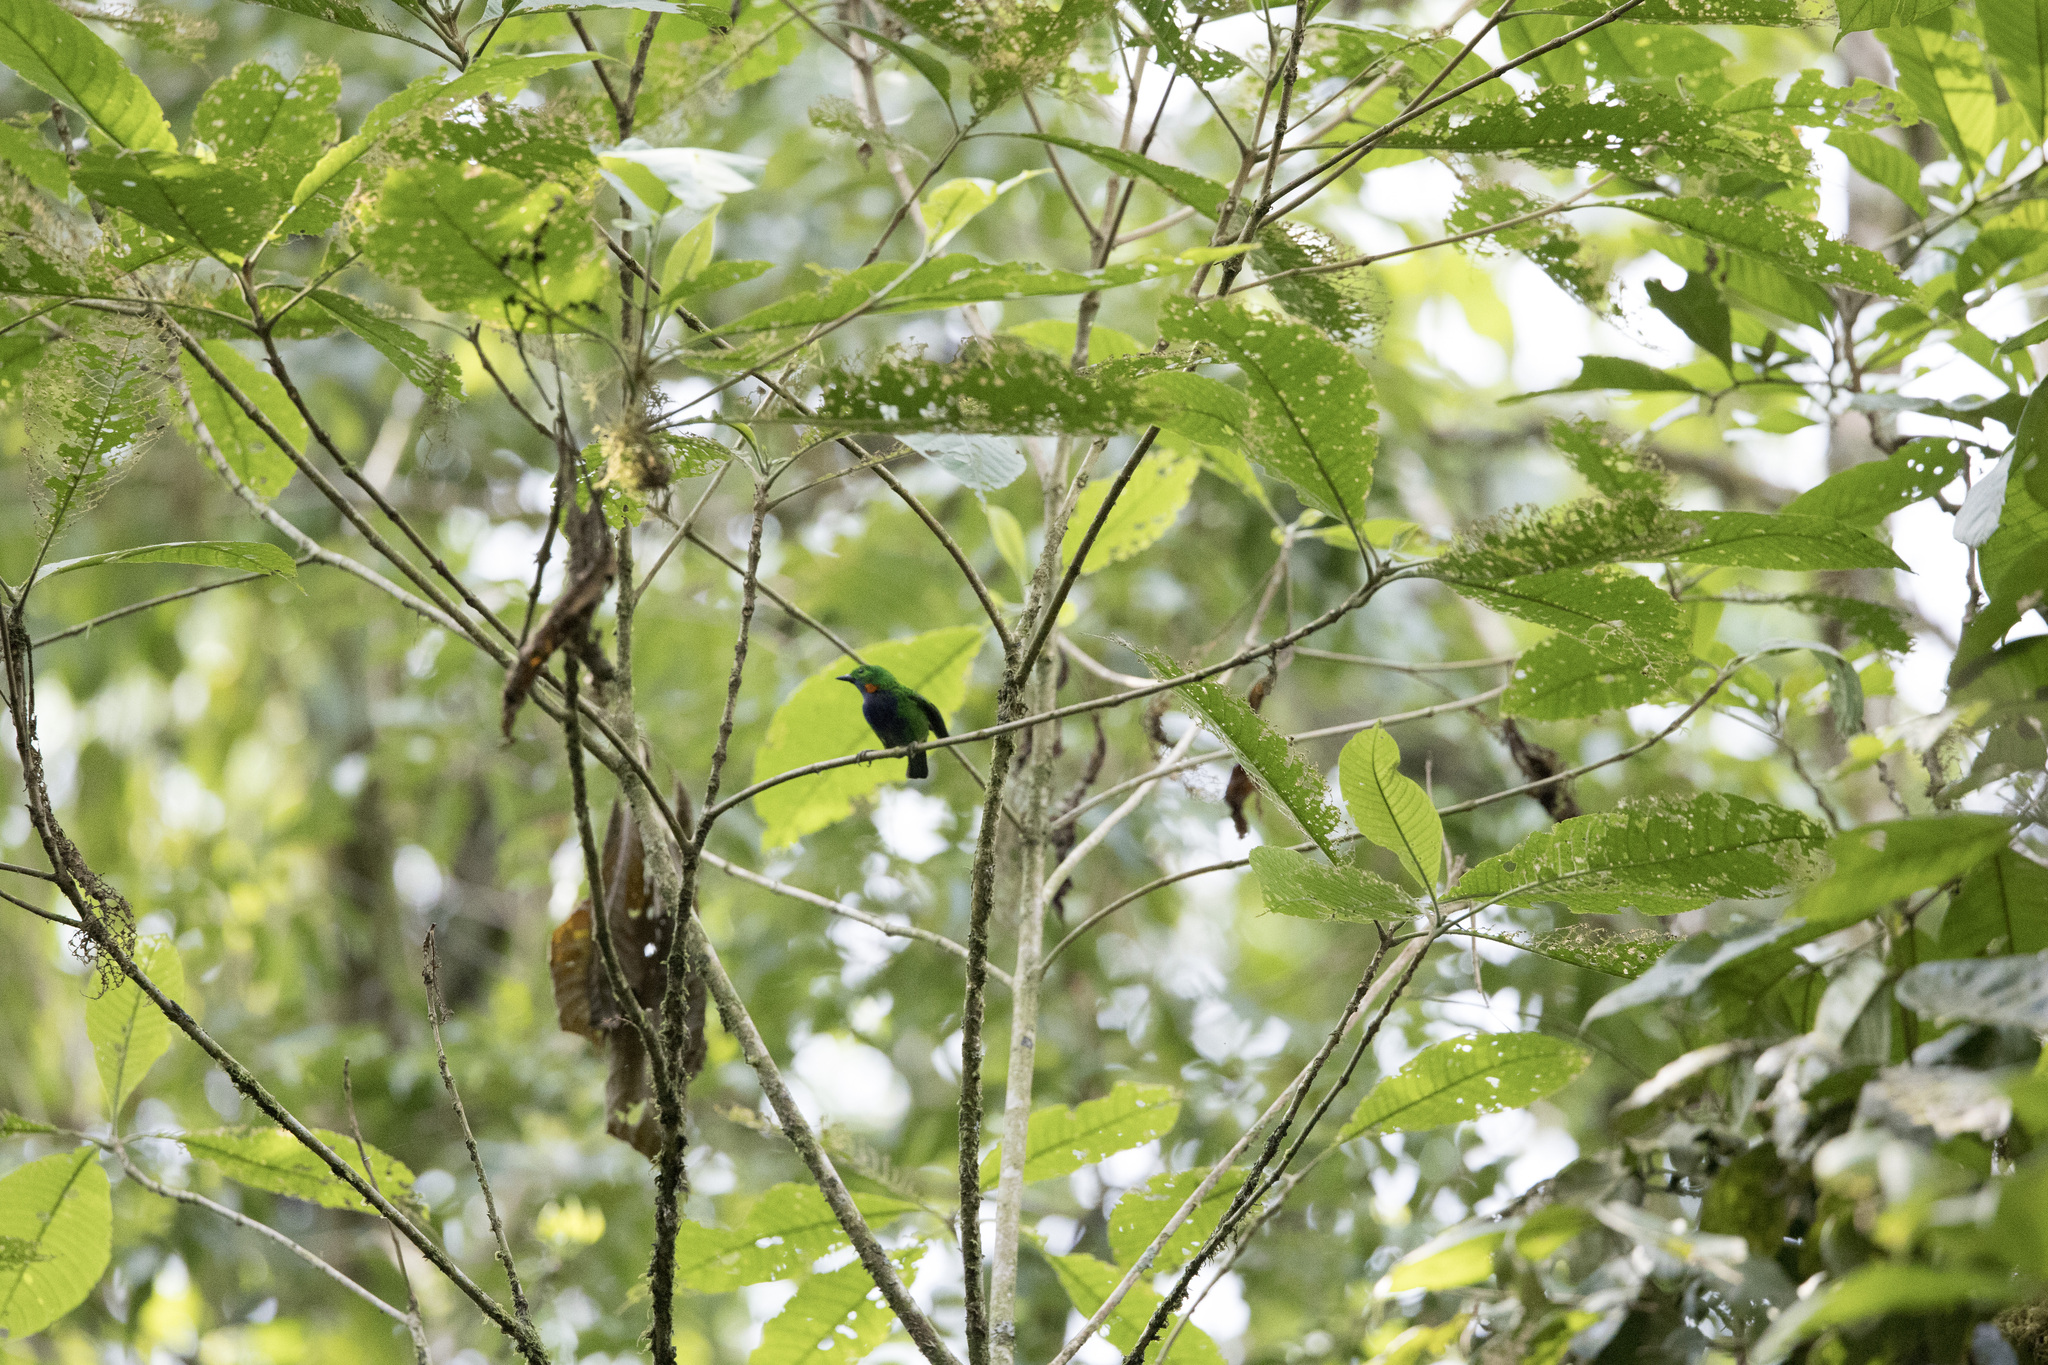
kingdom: Animalia
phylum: Chordata
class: Aves
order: Passeriformes
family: Thraupidae
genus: Chlorochrysa
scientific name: Chlorochrysa calliparaea
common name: Orange-eared tanager
